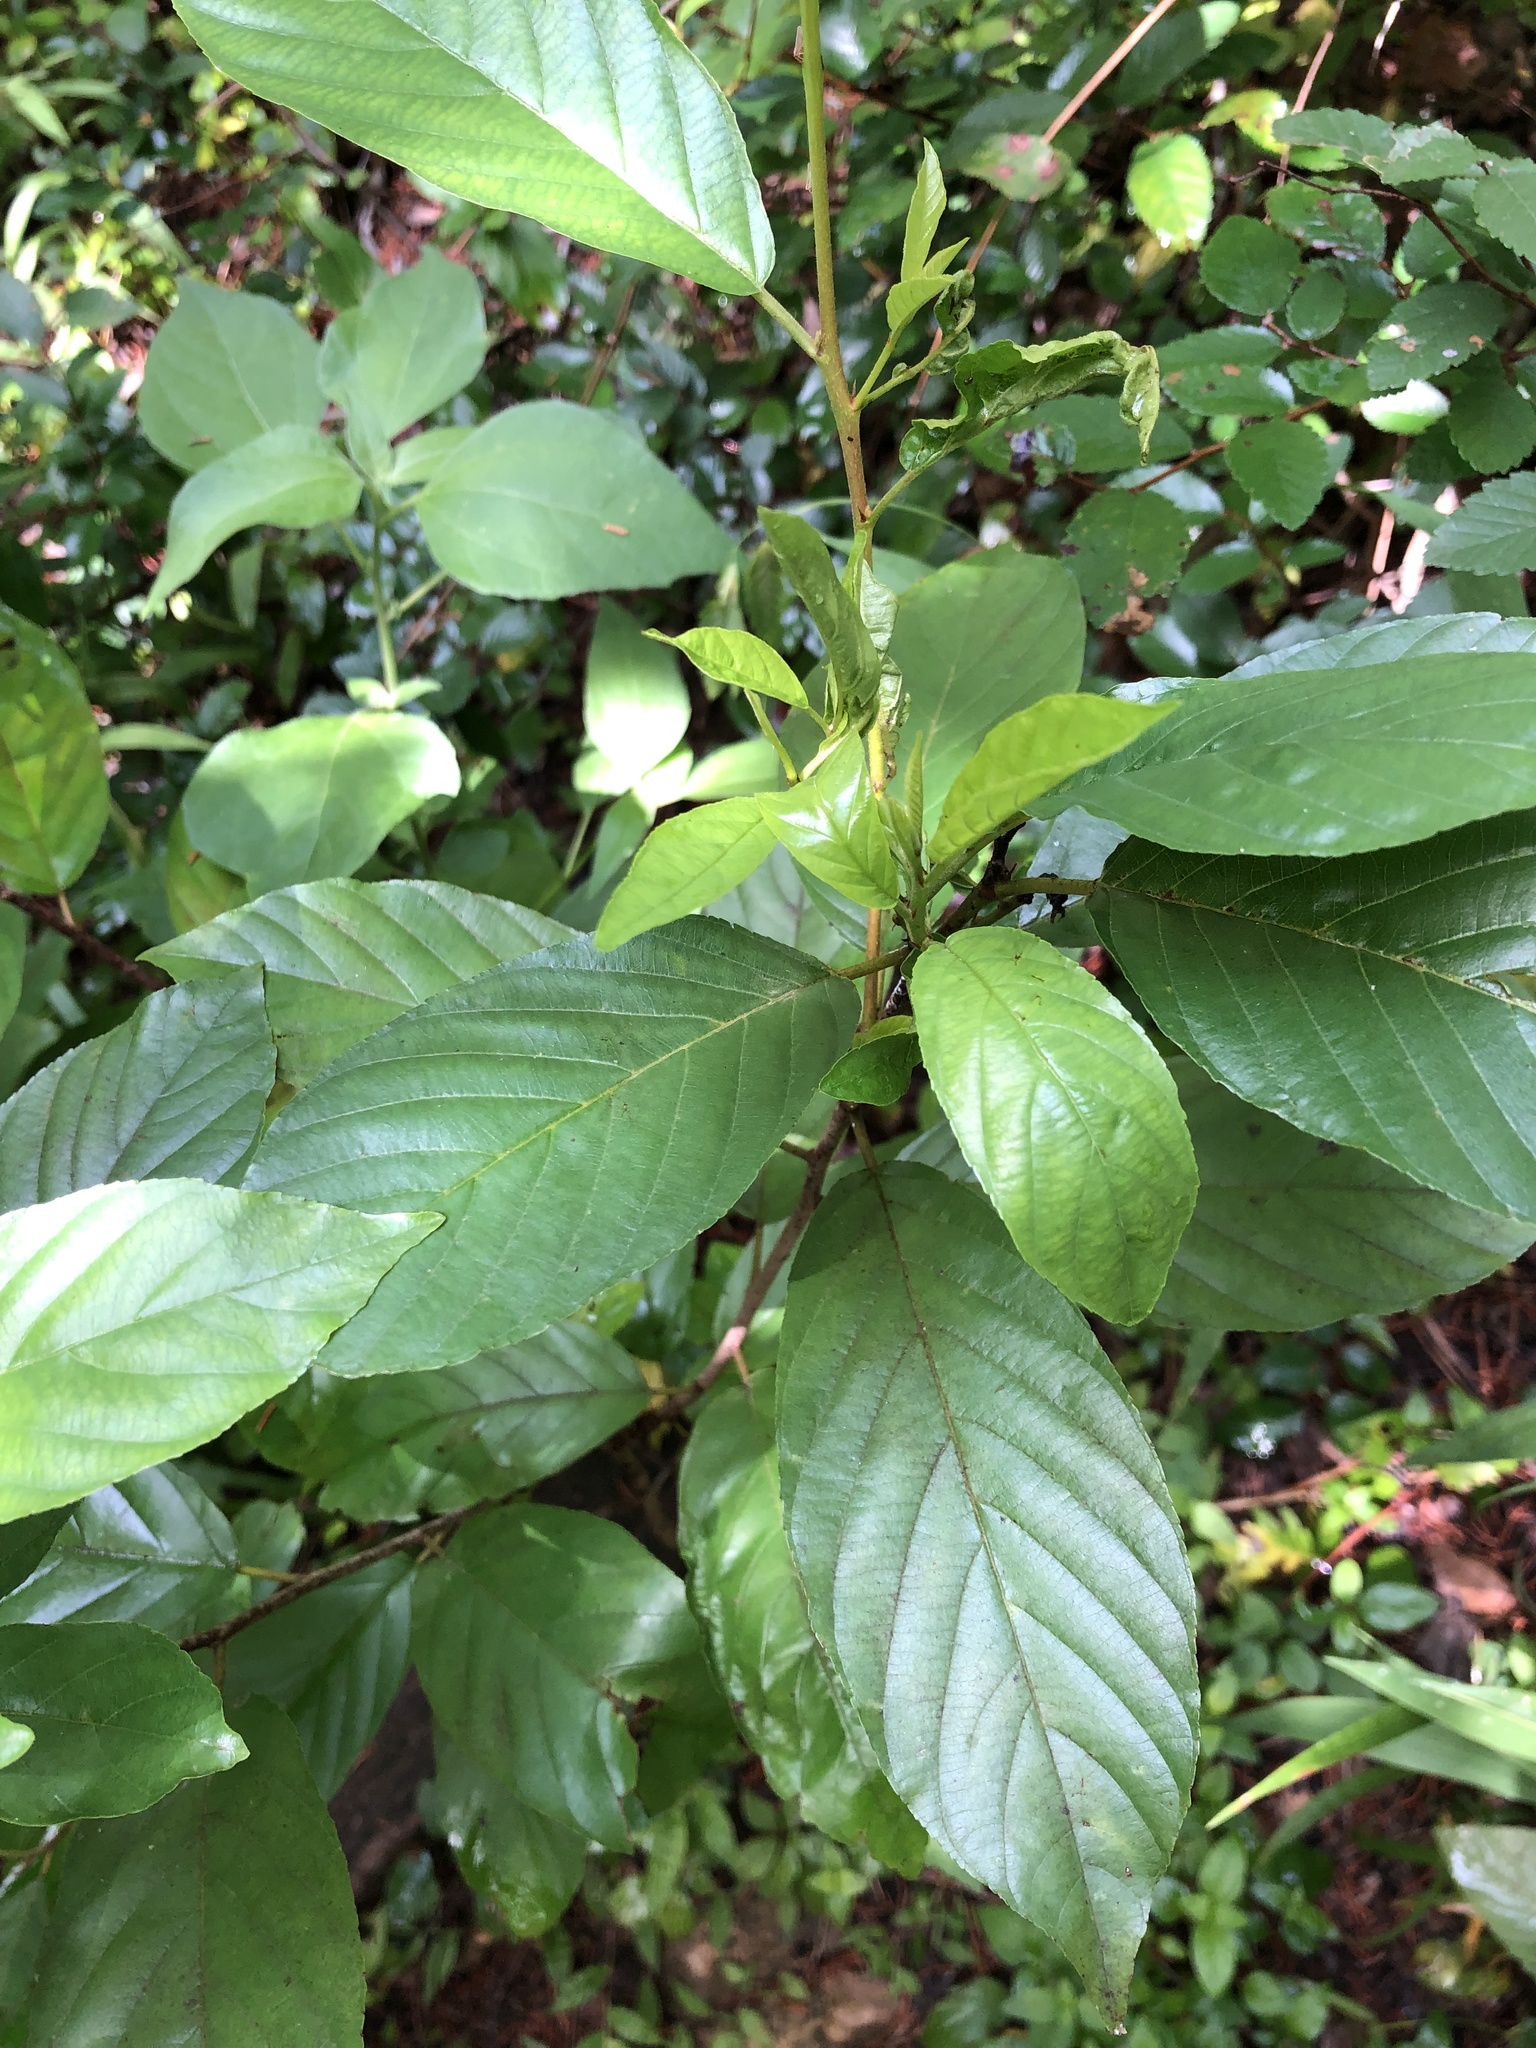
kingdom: Plantae
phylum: Tracheophyta
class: Magnoliopsida
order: Rosales
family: Rhamnaceae
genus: Frangula
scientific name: Frangula caroliniana
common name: Carolina buckthorn
